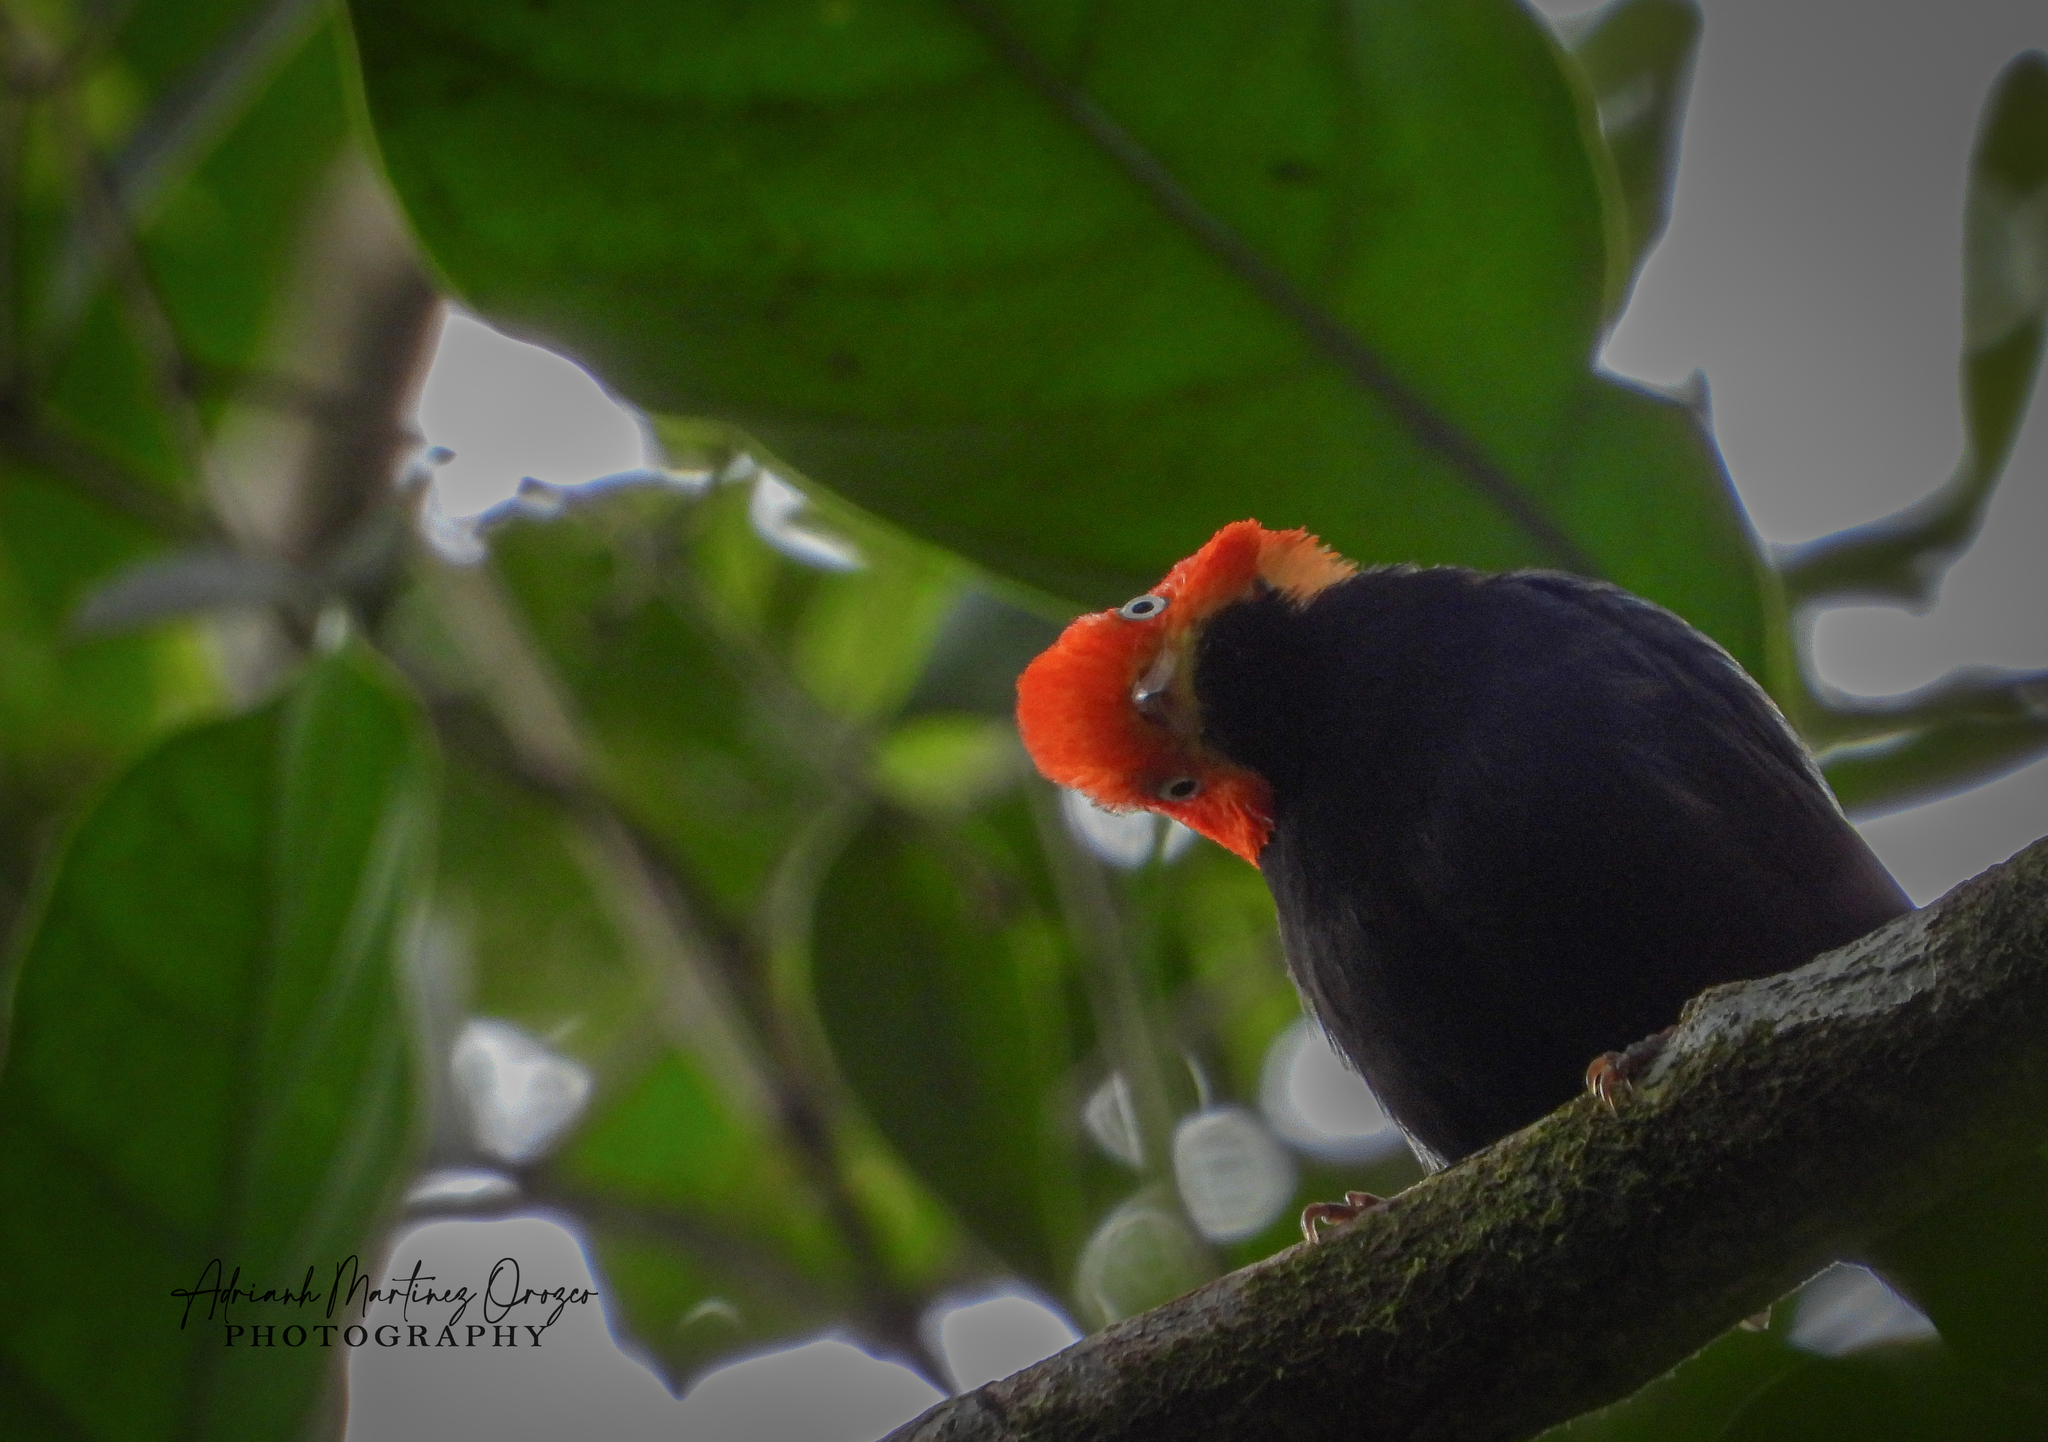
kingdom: Animalia
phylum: Chordata
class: Aves
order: Passeriformes
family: Pipridae
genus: Pipra
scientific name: Pipra mentalis
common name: Red-capped manakin
